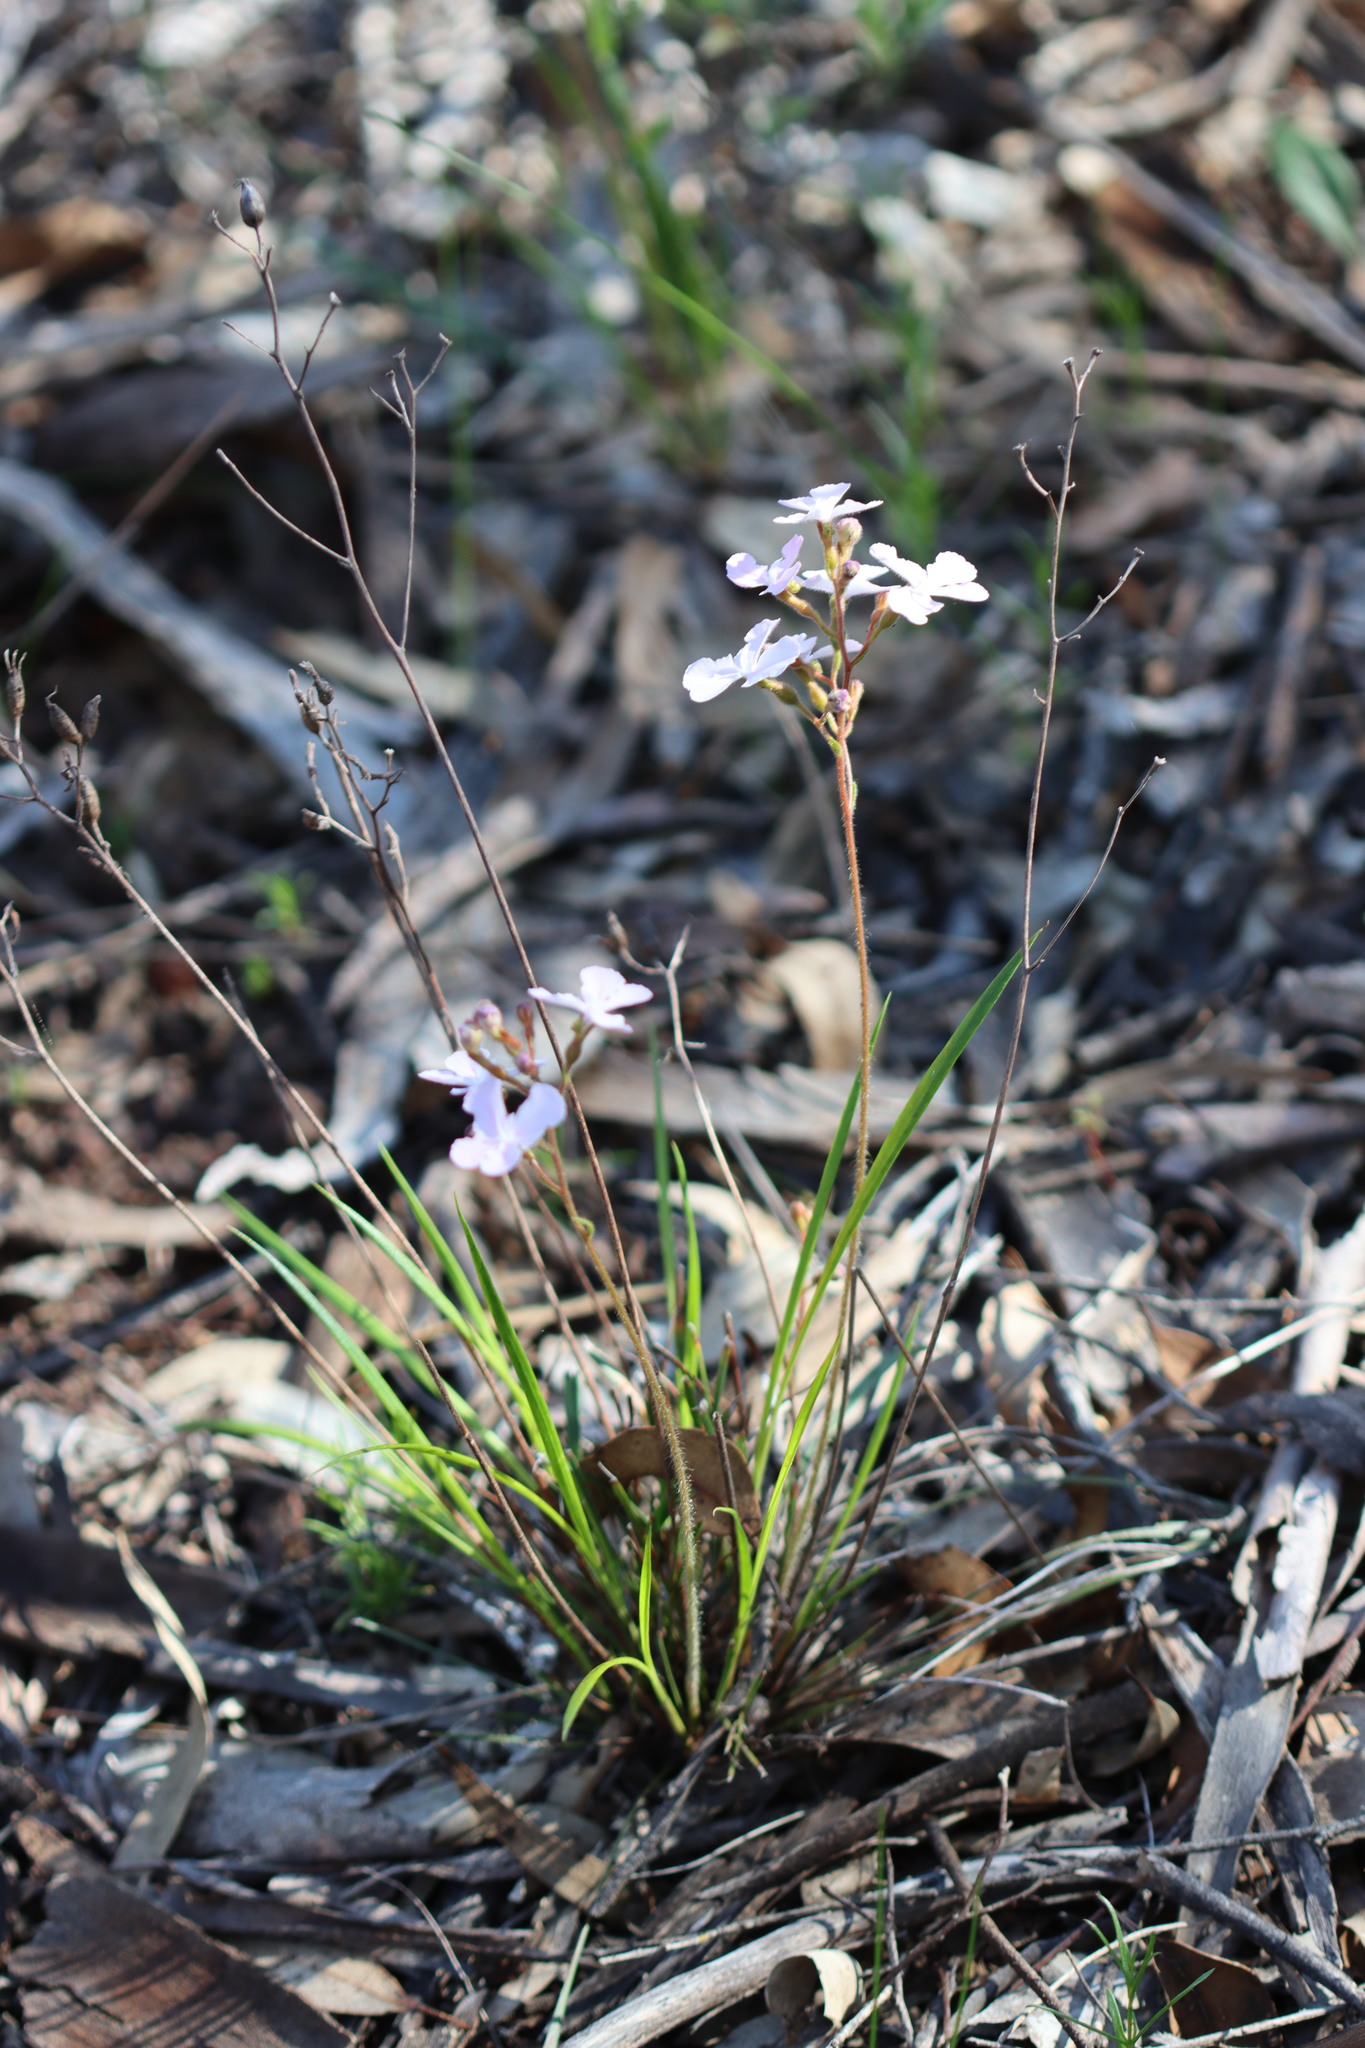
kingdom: Plantae
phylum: Tracheophyta
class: Magnoliopsida
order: Asterales
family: Stylidiaceae
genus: Stylidium
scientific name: Stylidium affine
